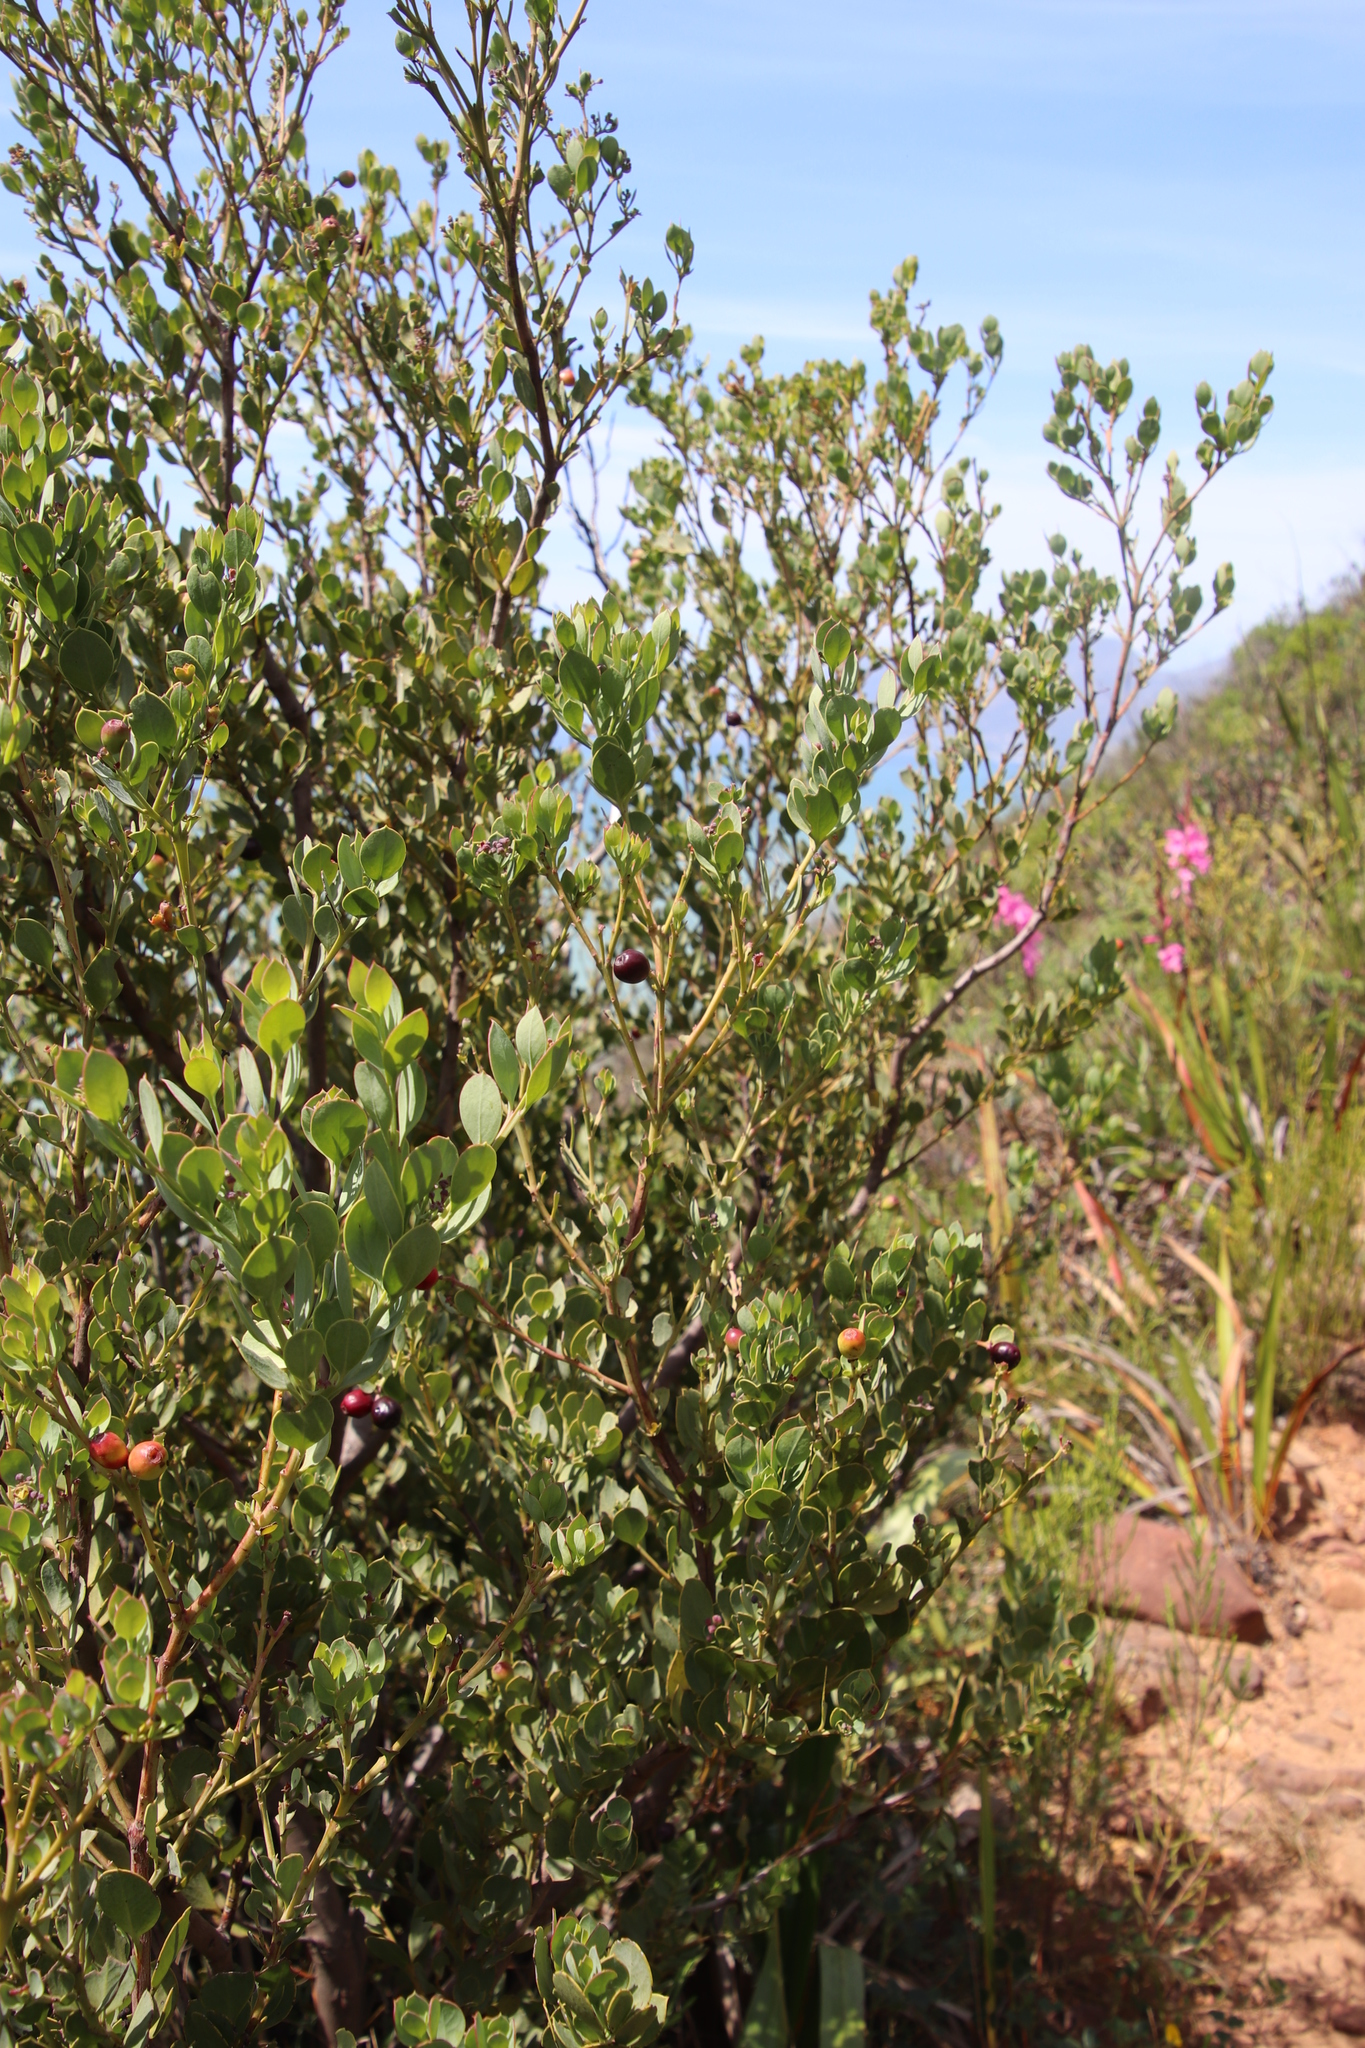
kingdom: Plantae
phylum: Tracheophyta
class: Magnoliopsida
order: Santalales
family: Santalaceae
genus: Osyris
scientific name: Osyris compressa
